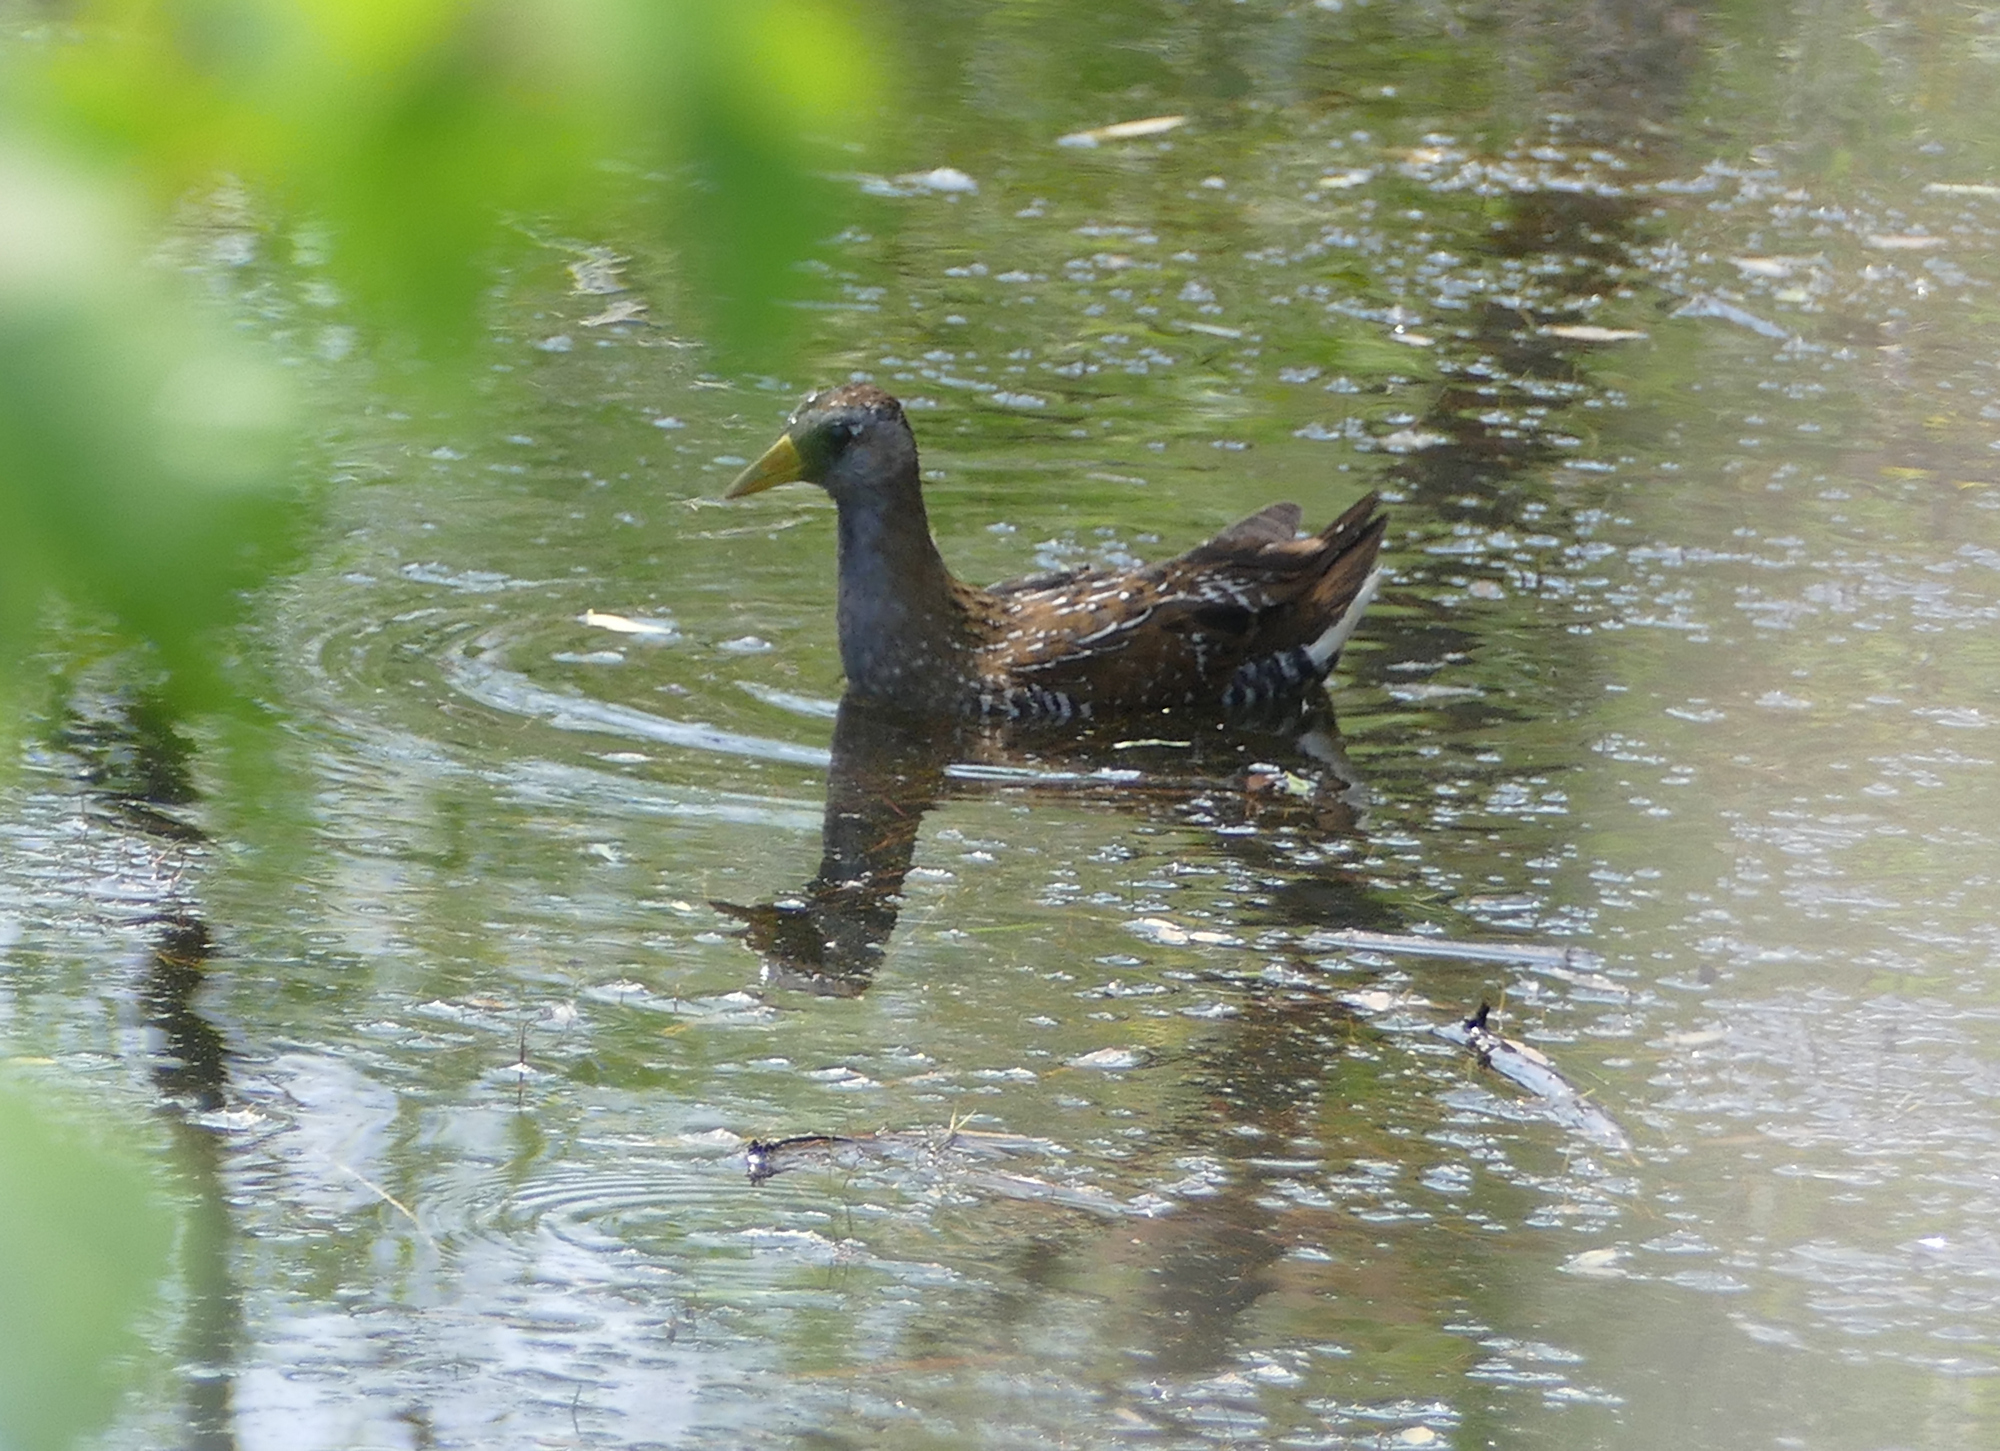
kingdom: Animalia
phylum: Chordata
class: Aves
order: Gruiformes
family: Rallidae
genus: Porzana
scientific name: Porzana carolina
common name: Sora
